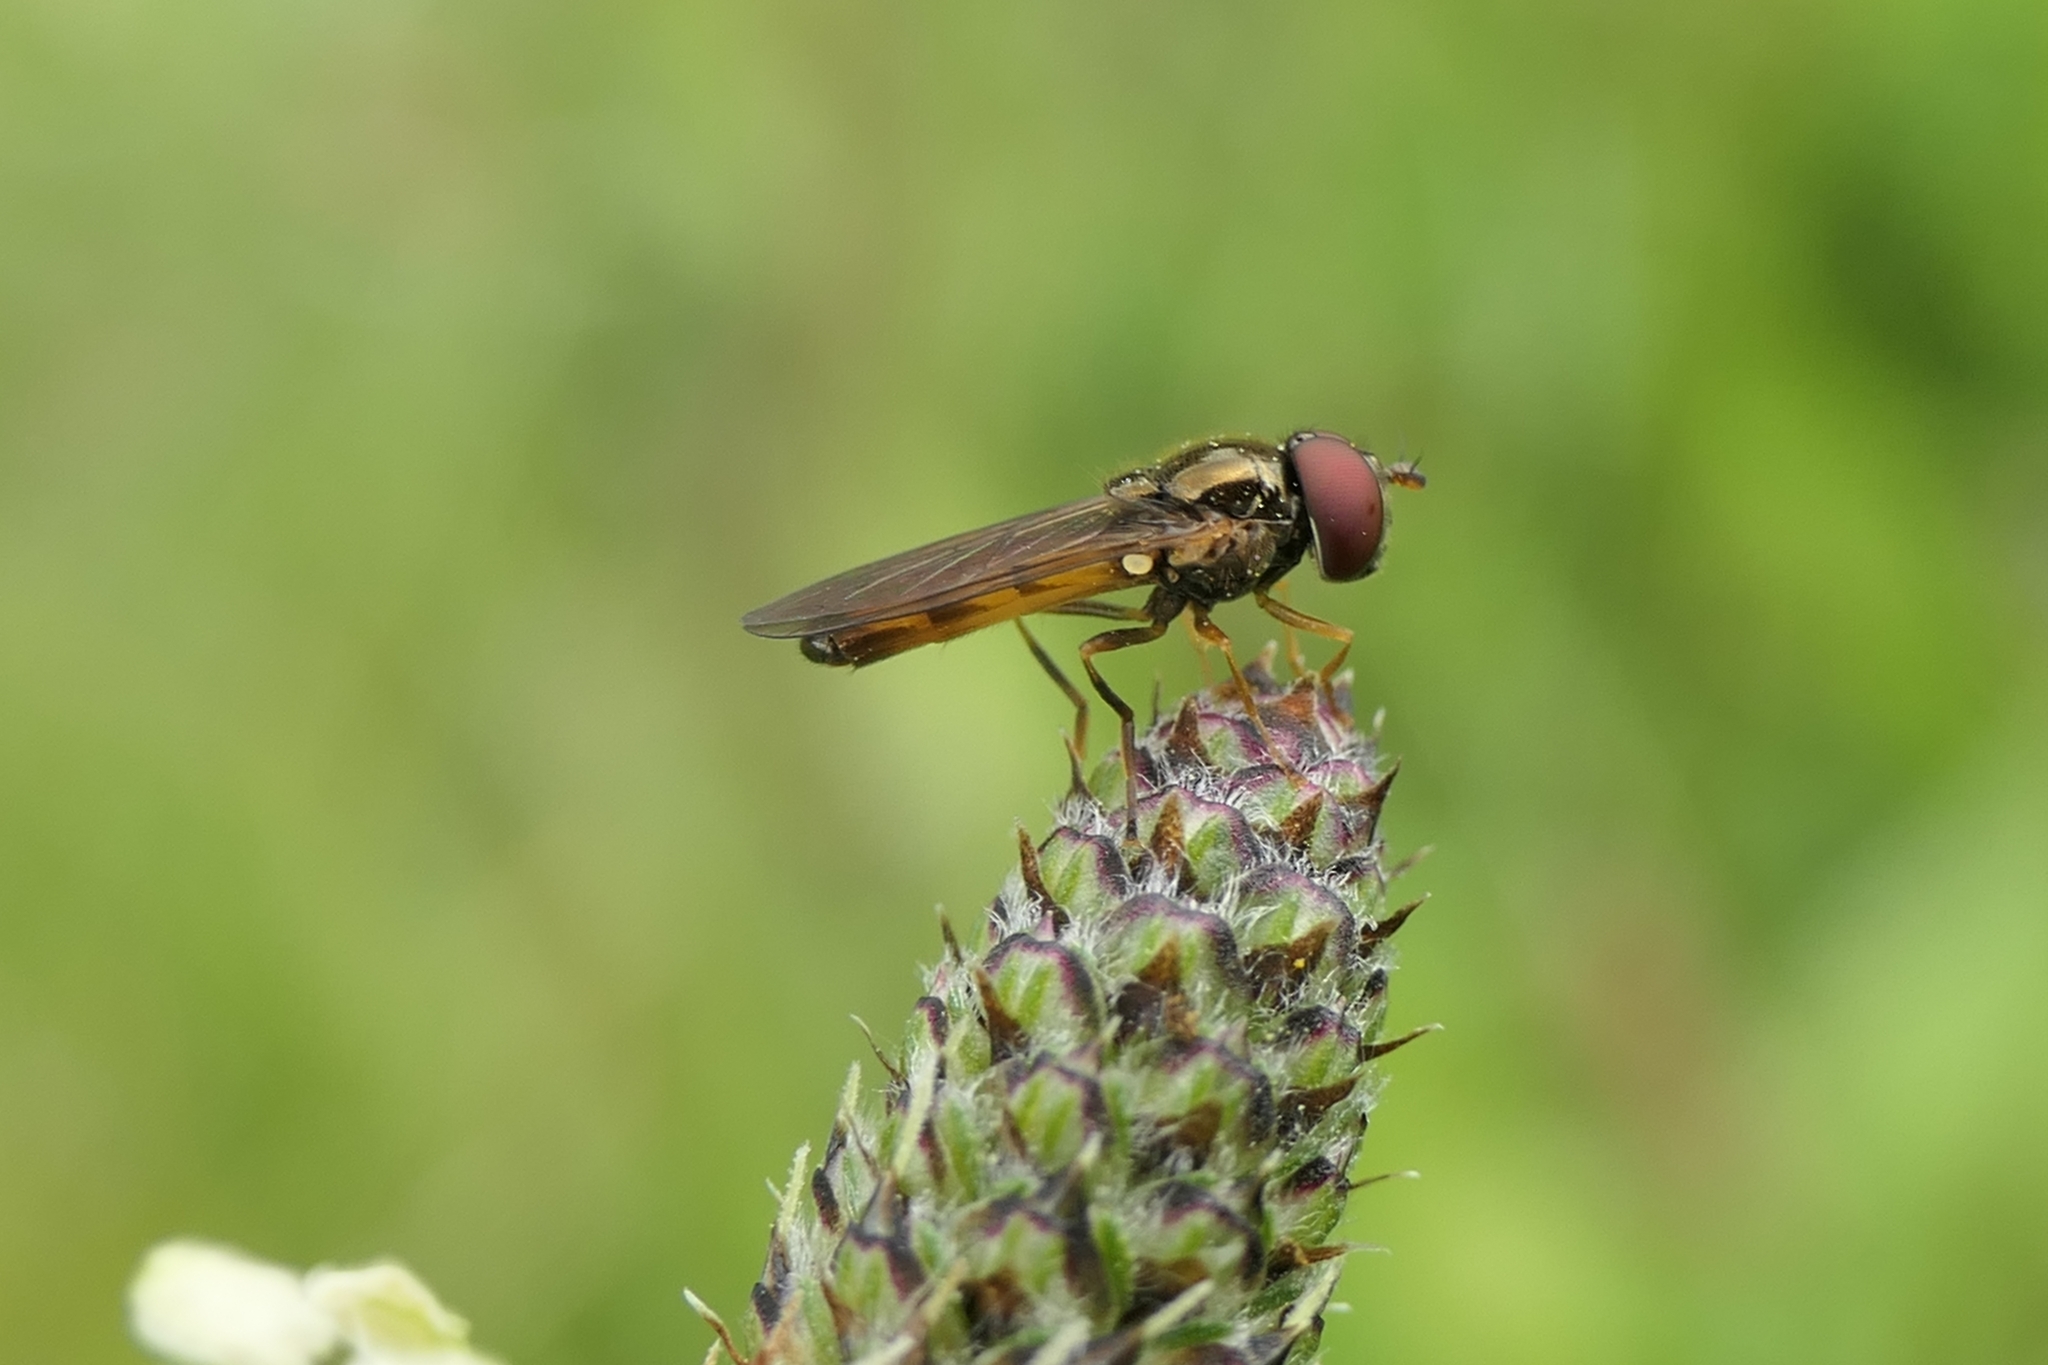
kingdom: Animalia
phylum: Arthropoda
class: Insecta
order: Diptera
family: Syrphidae
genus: Melanostoma
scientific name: Melanostoma fasciatum
